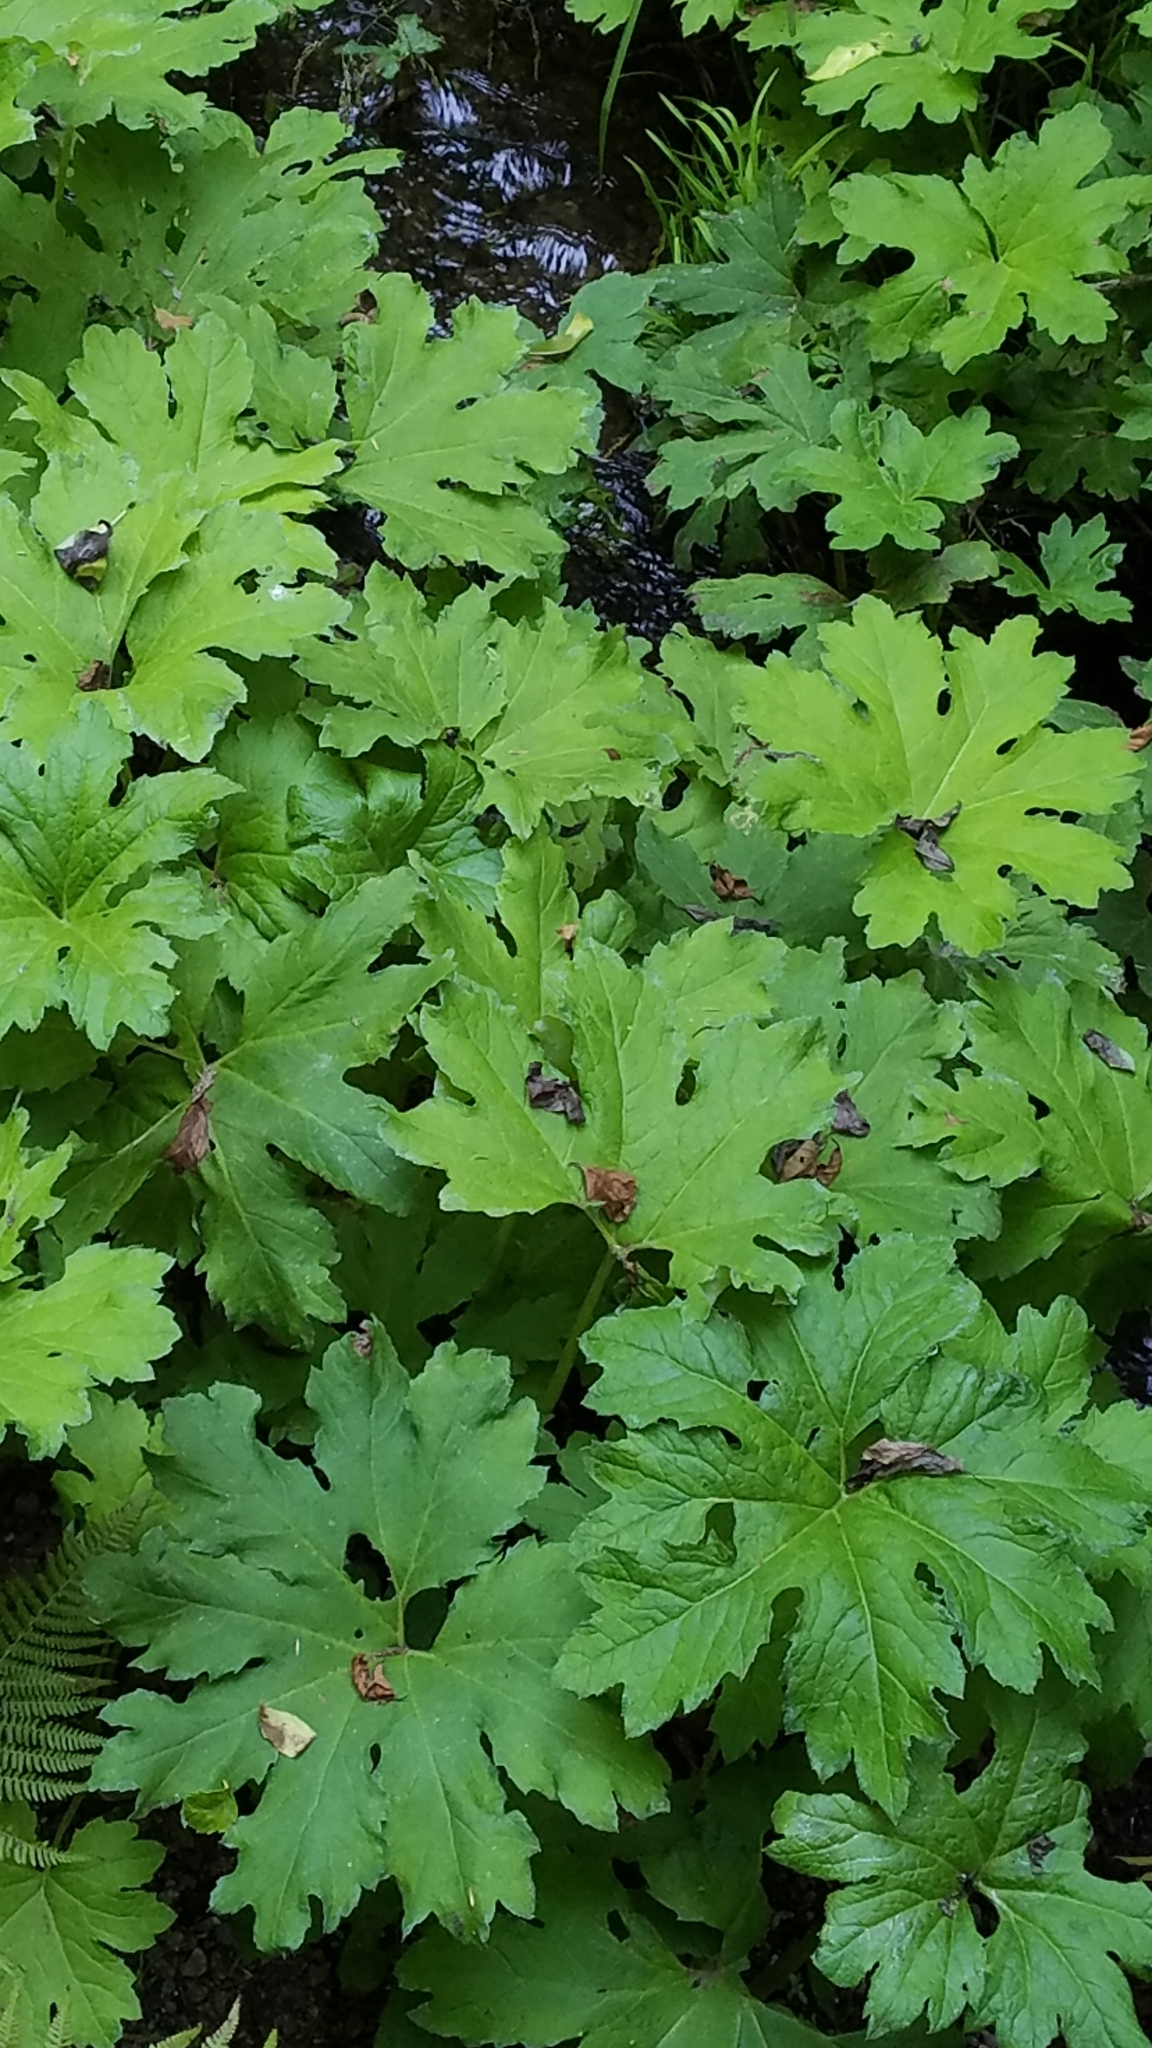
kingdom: Plantae
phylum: Tracheophyta
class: Magnoliopsida
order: Asterales
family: Asteraceae
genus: Petasites
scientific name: Petasites frigidus
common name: Arctic butterbur
